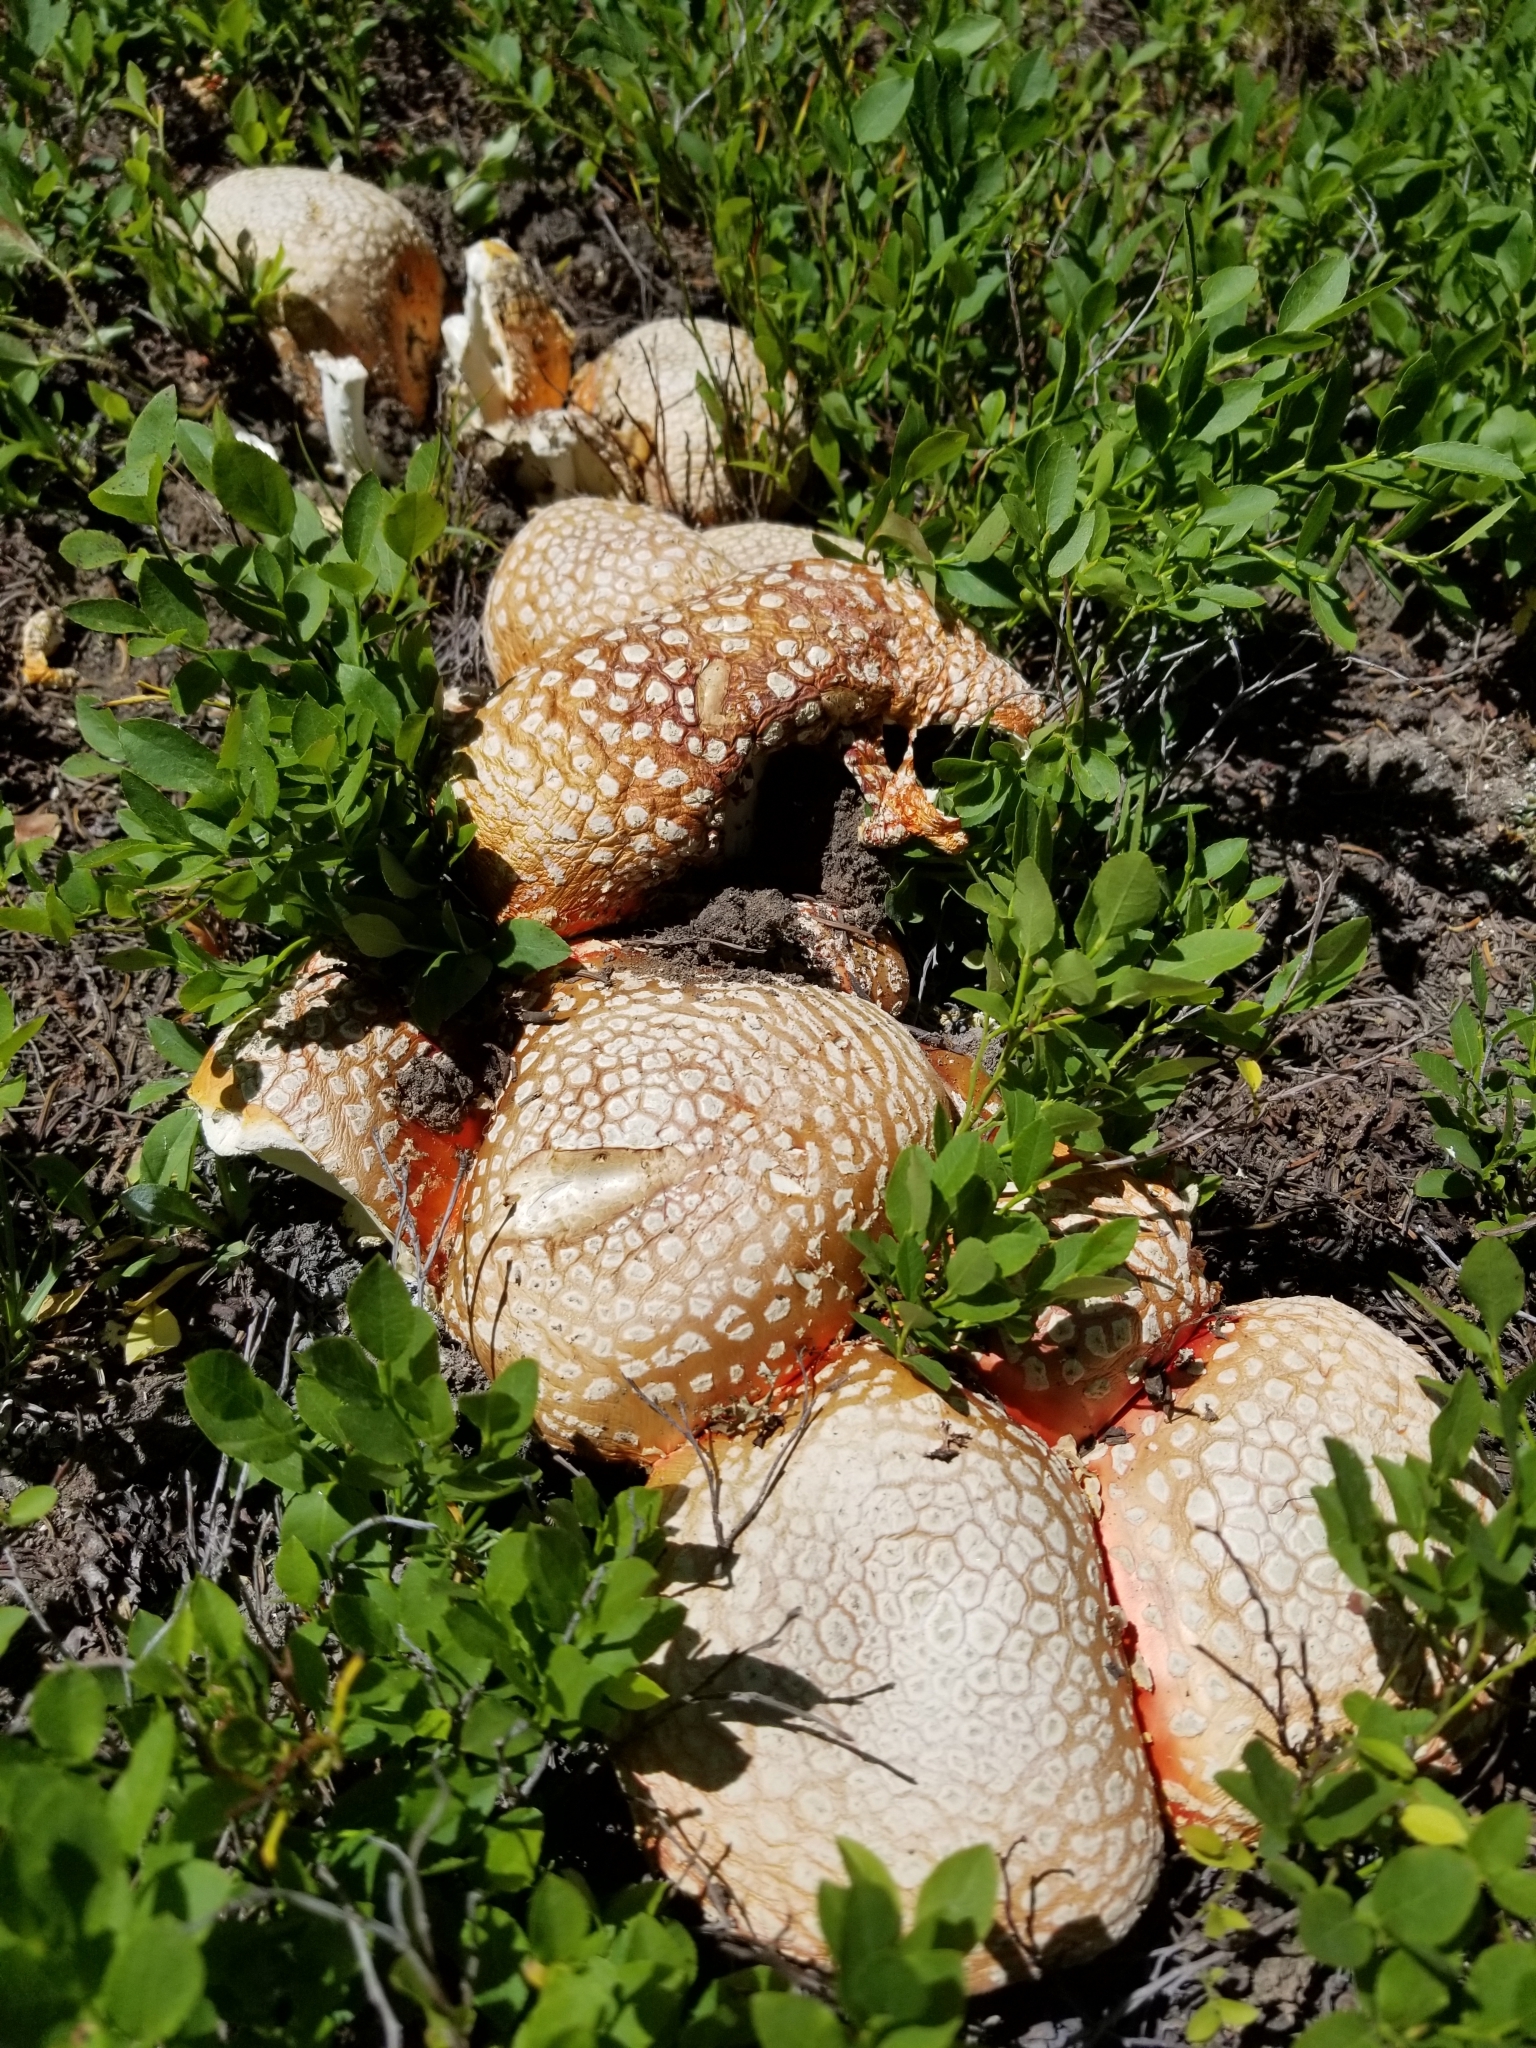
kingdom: Fungi
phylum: Basidiomycota
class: Agaricomycetes
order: Agaricales
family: Amanitaceae
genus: Amanita
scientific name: Amanita muscaria
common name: Fly agaric
